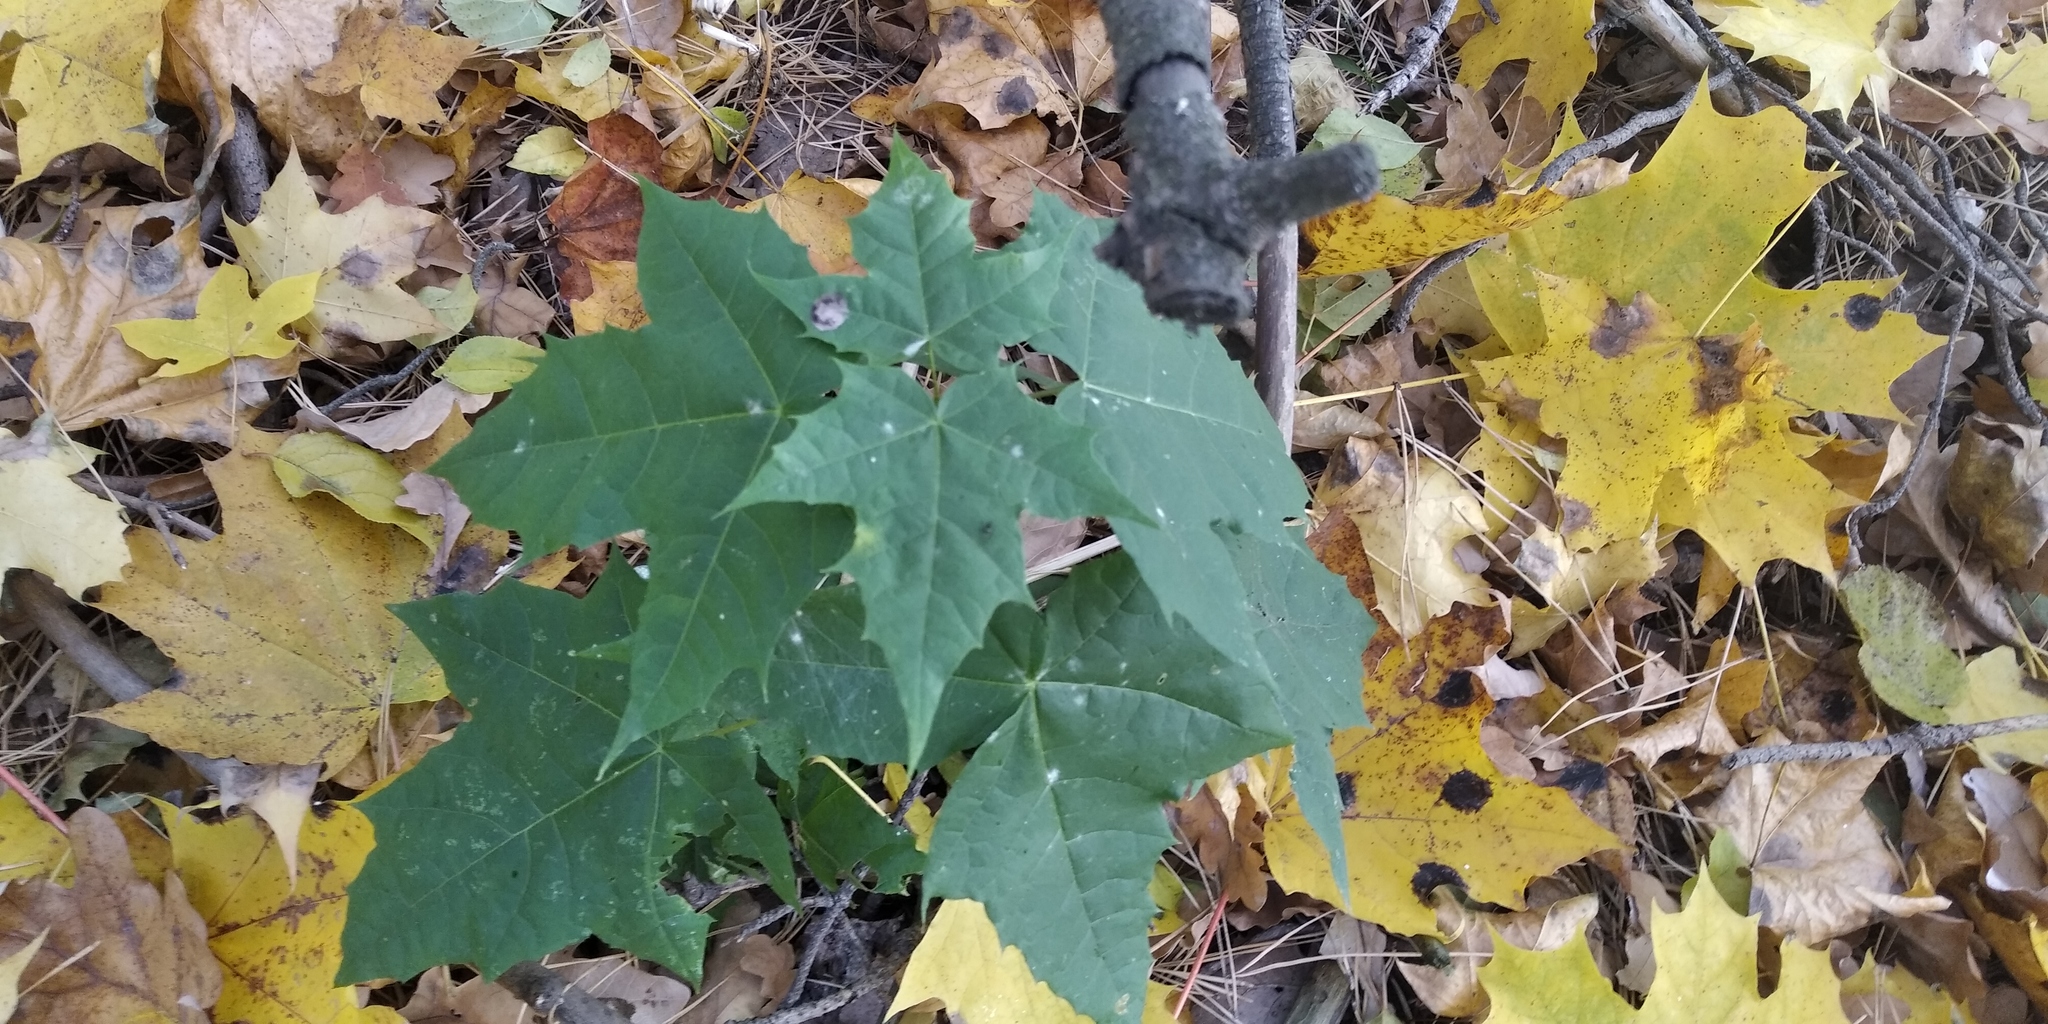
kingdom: Plantae
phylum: Tracheophyta
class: Magnoliopsida
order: Sapindales
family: Sapindaceae
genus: Acer
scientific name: Acer platanoides
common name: Norway maple
